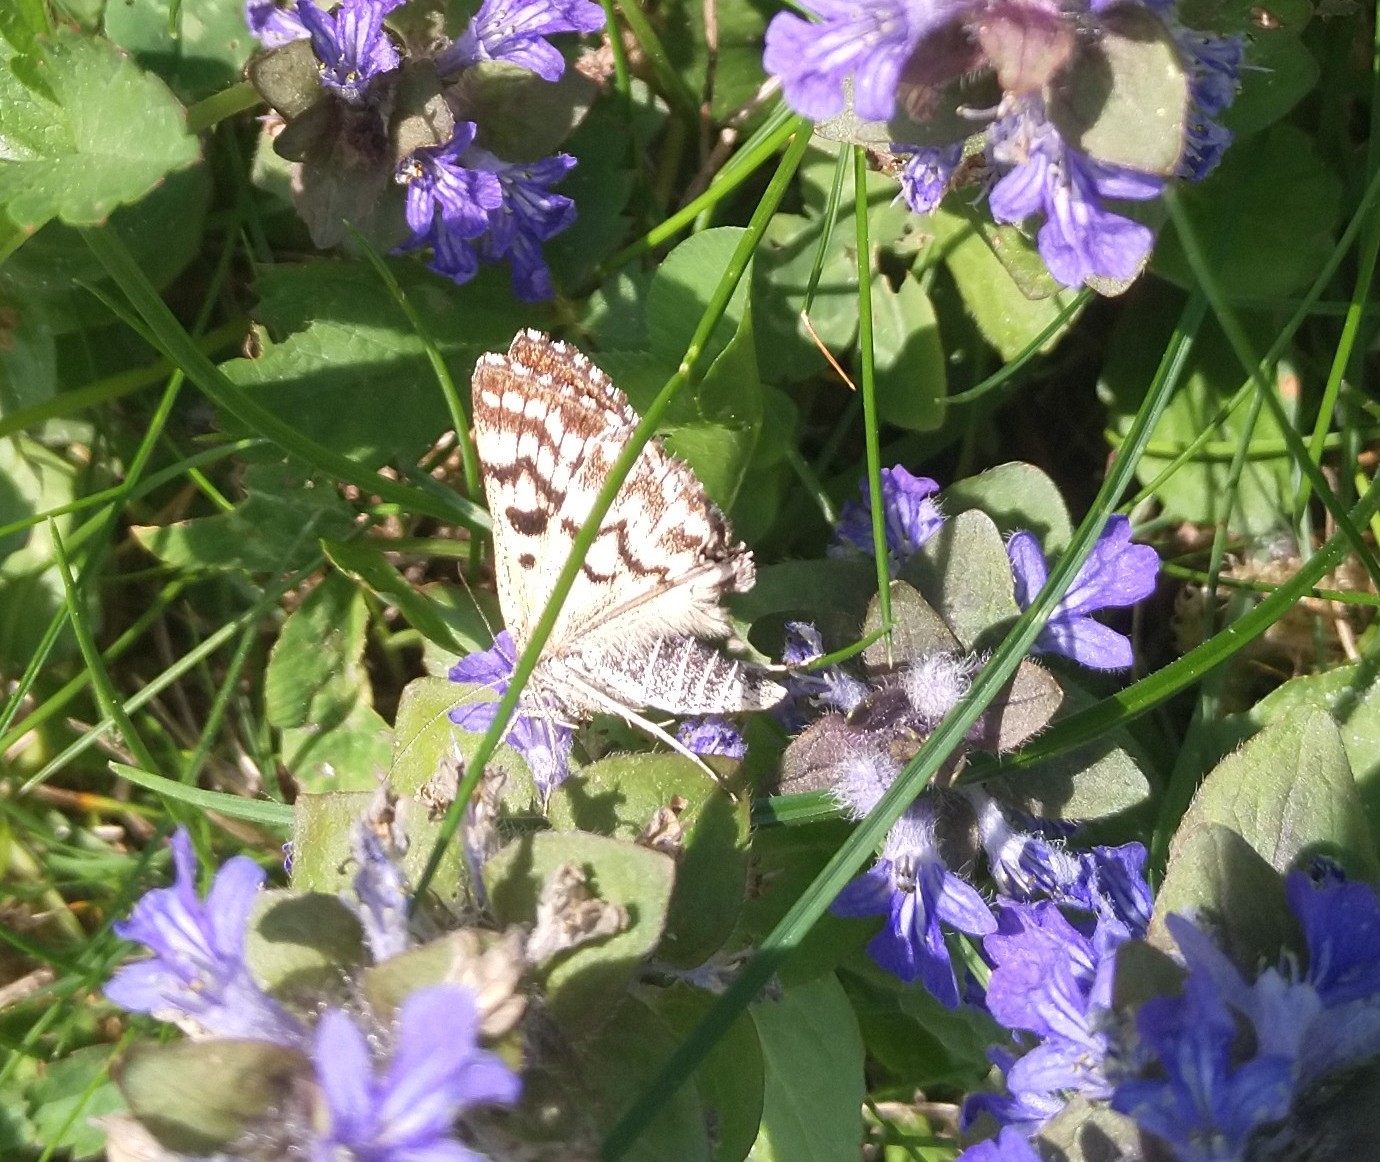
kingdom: Animalia
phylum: Arthropoda
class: Insecta
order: Lepidoptera
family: Erebidae
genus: Callistege
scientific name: Callistege mi
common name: Mother shipton
